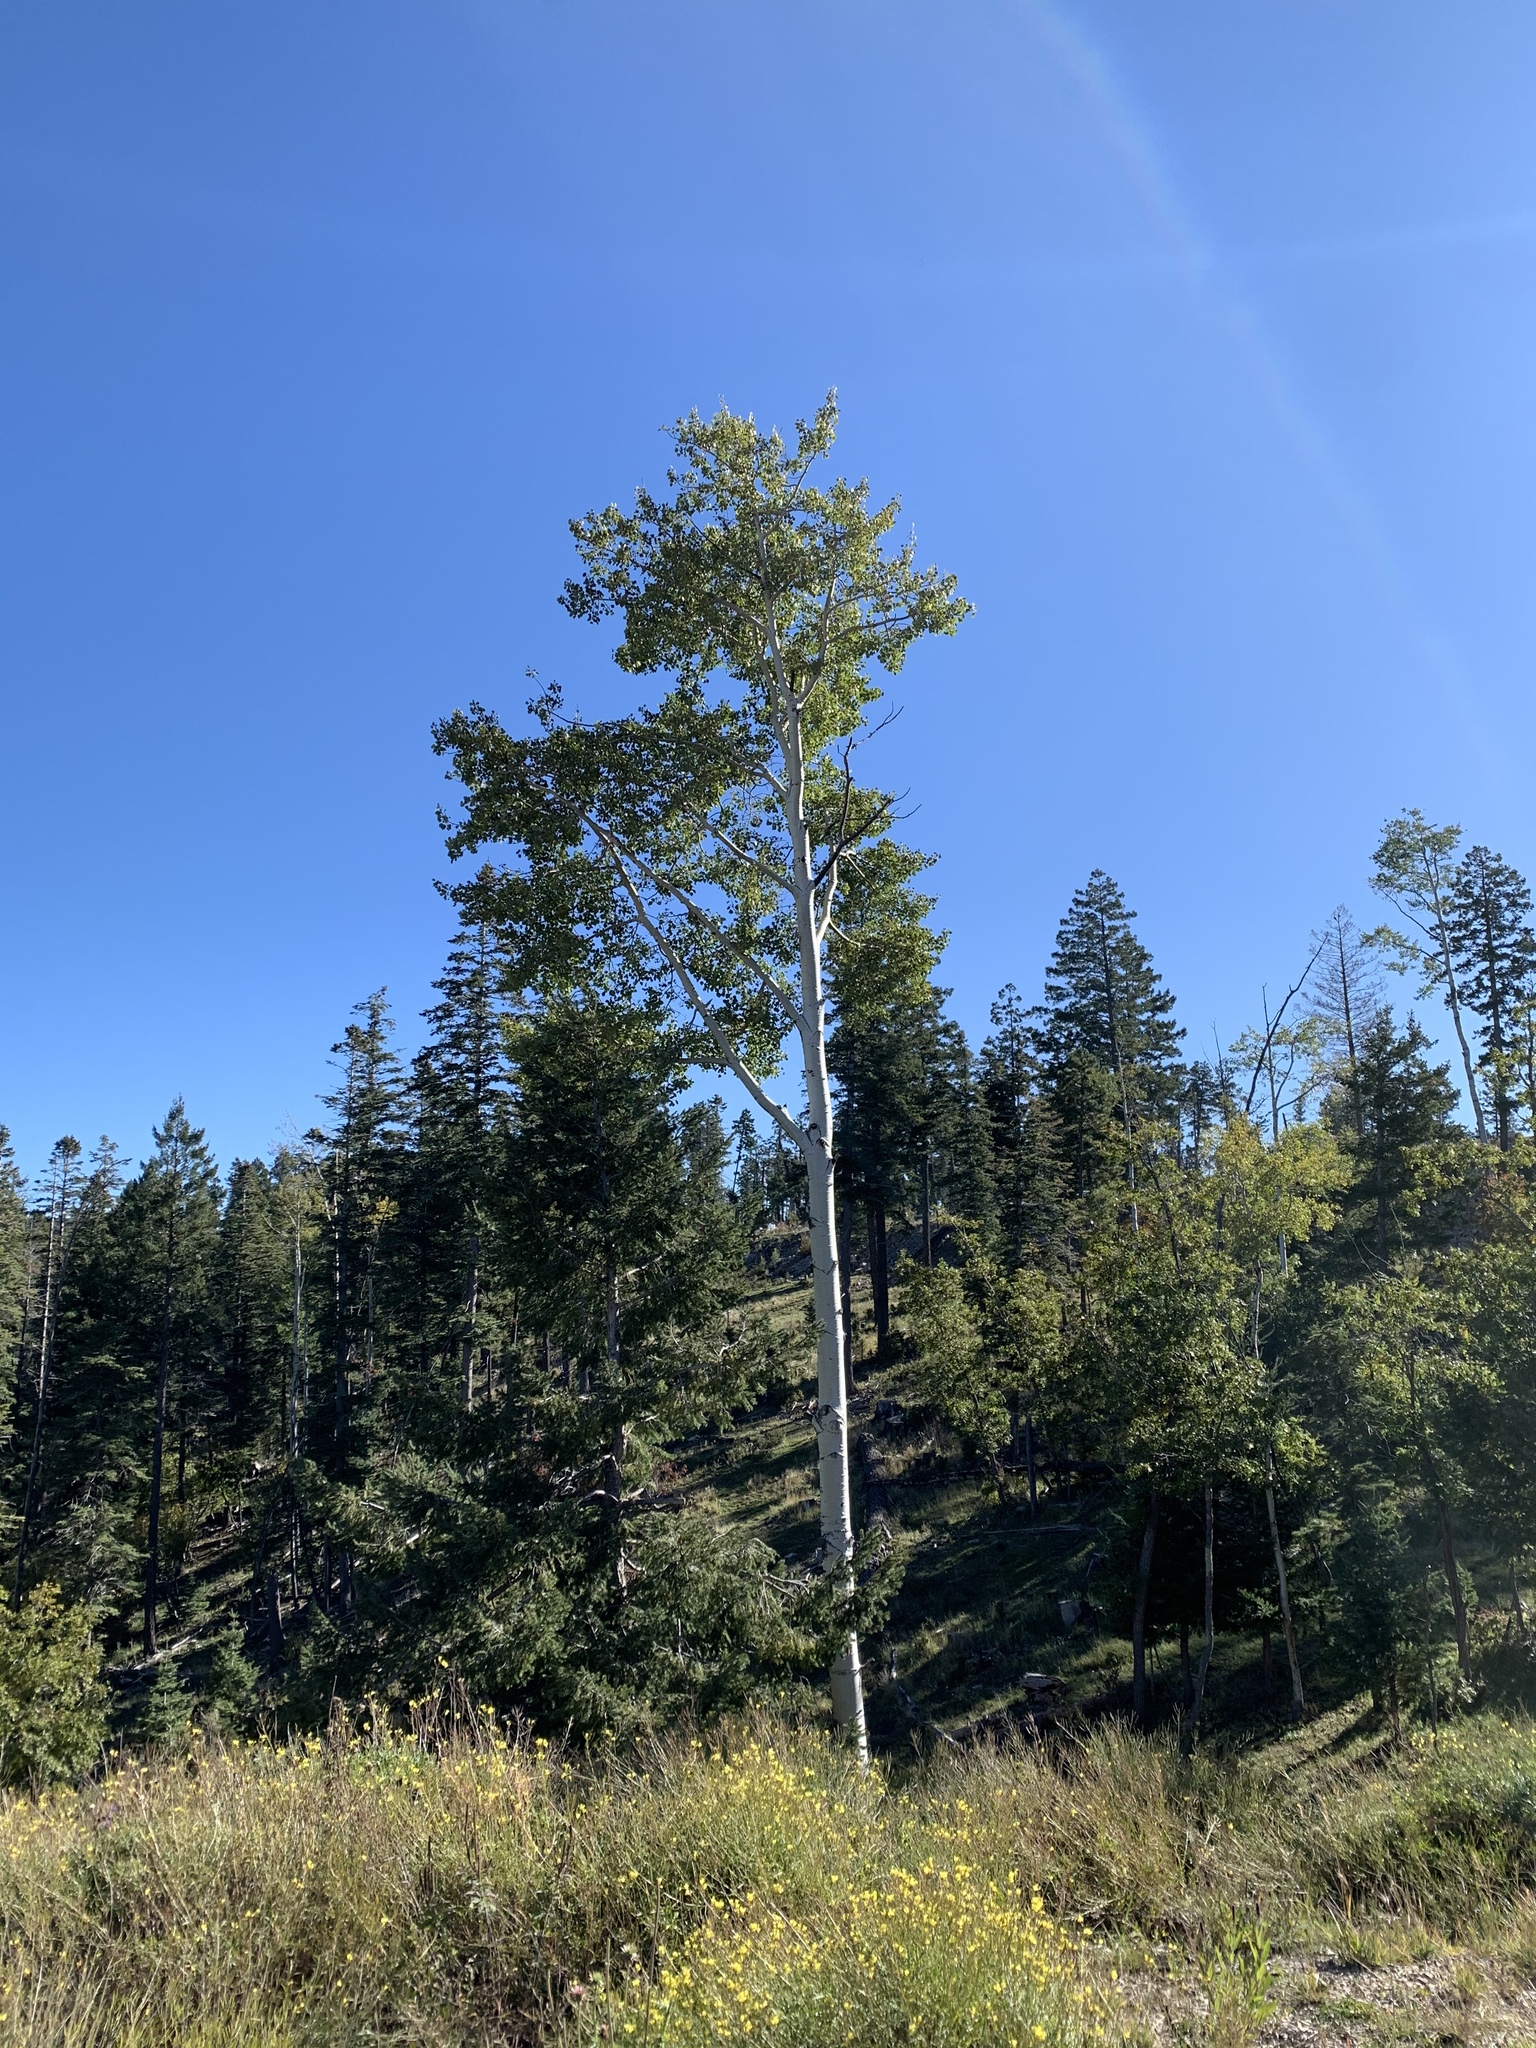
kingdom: Plantae
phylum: Tracheophyta
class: Magnoliopsida
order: Malpighiales
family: Salicaceae
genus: Populus
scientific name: Populus tremuloides
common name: Quaking aspen
